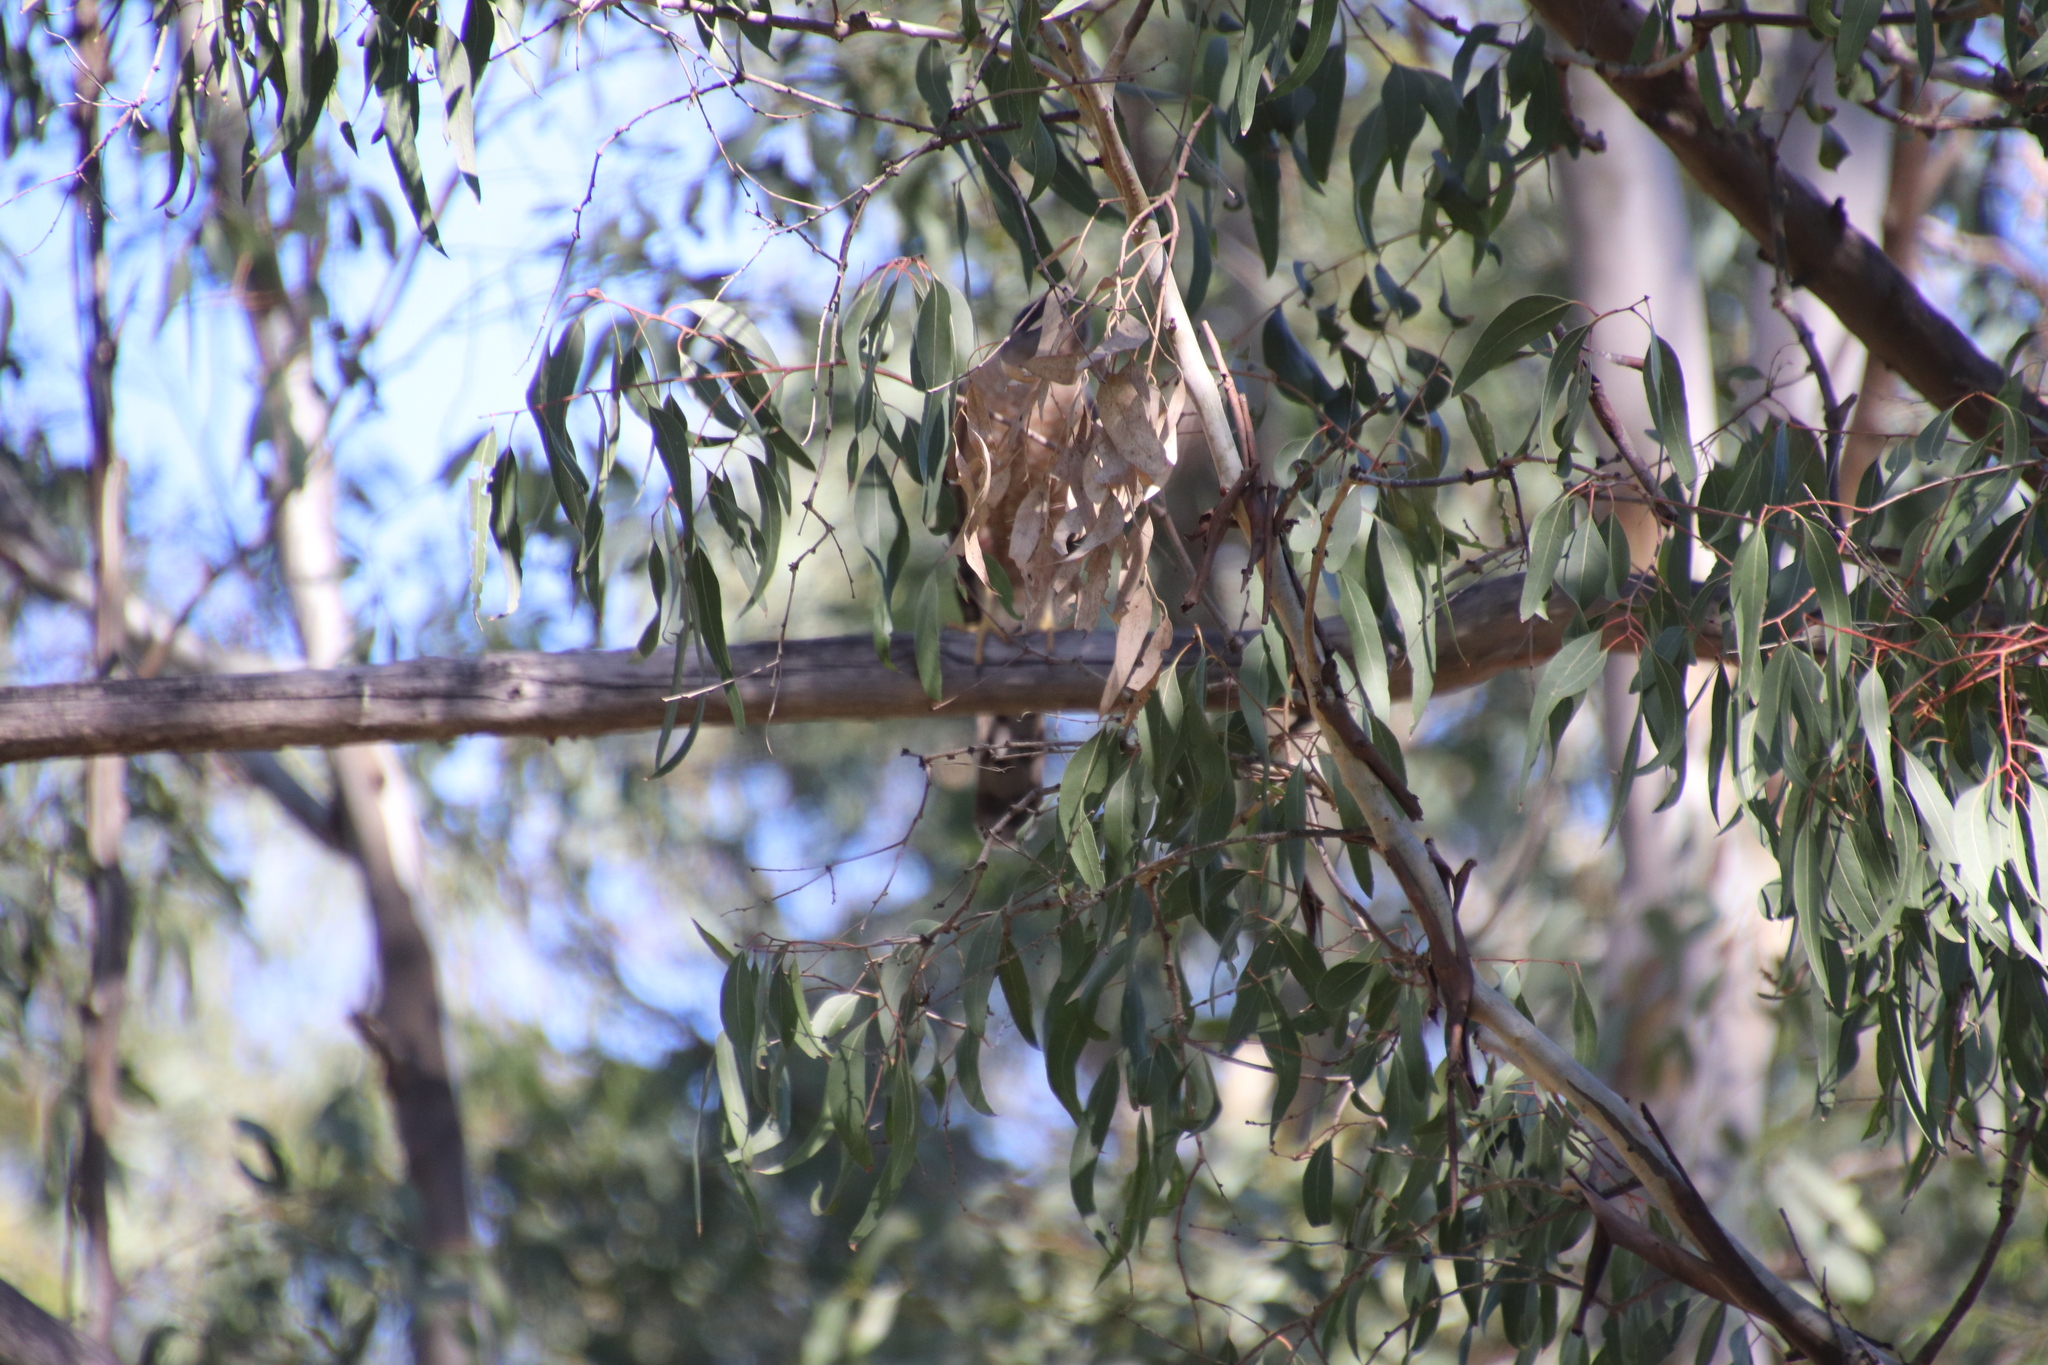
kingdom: Animalia
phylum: Chordata
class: Aves
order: Accipitriformes
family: Accipitridae
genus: Accipiter
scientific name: Accipiter cooperii
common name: Cooper's hawk
